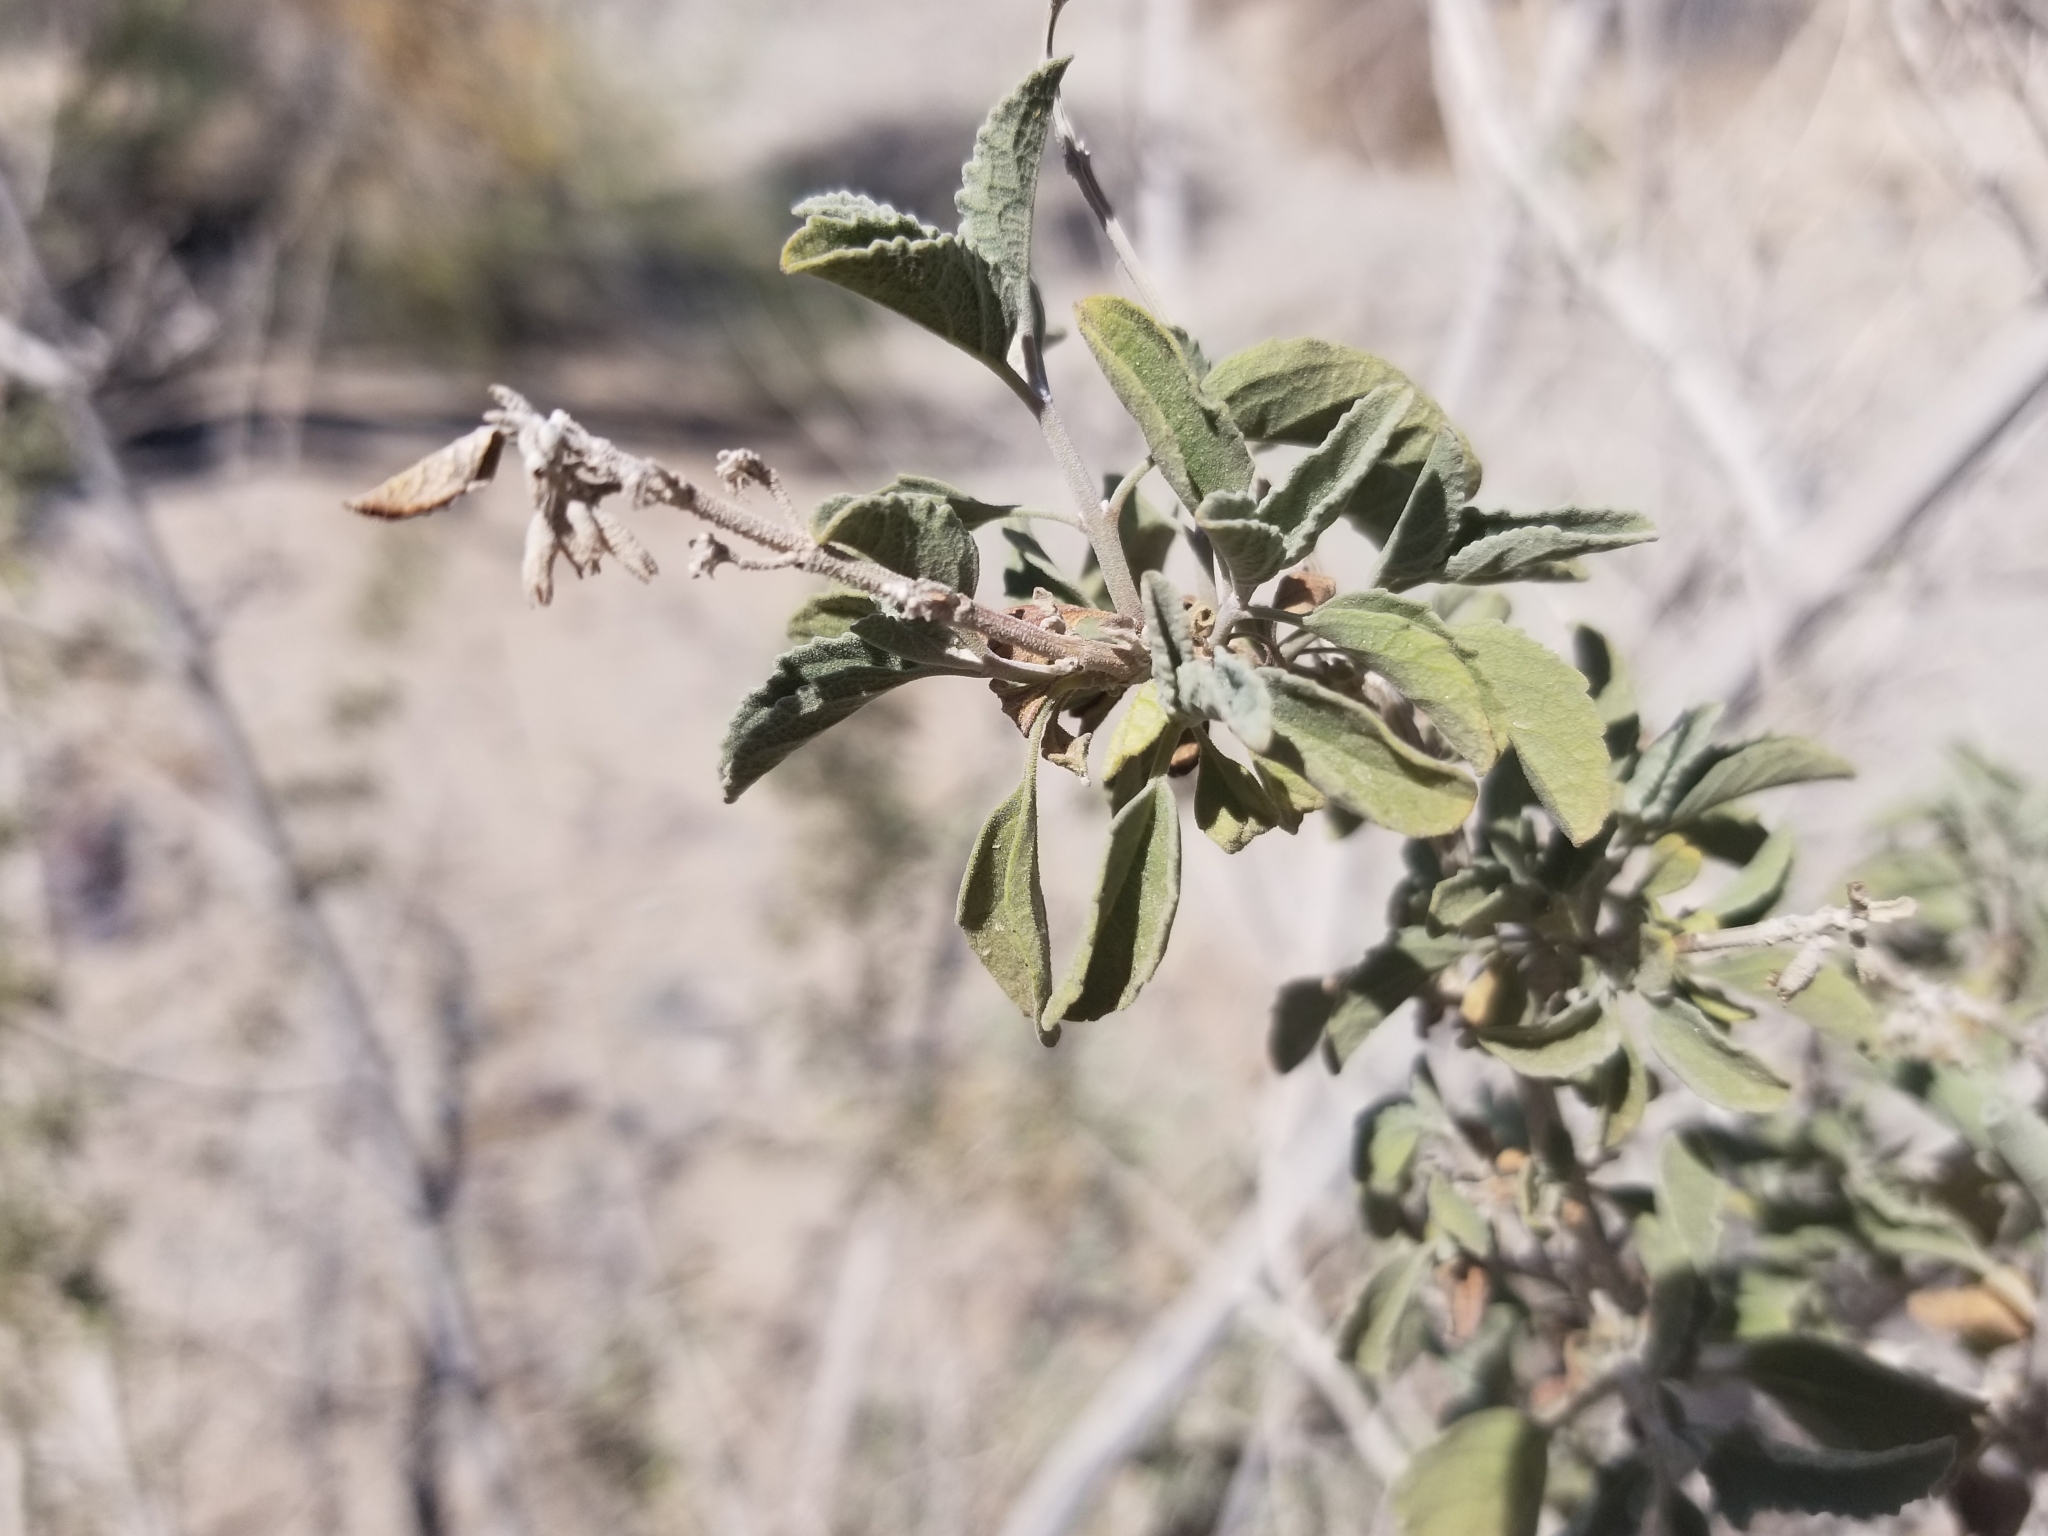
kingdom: Plantae
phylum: Tracheophyta
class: Magnoliopsida
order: Lamiales
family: Lamiaceae
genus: Condea
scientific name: Condea emoryi
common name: Chia
